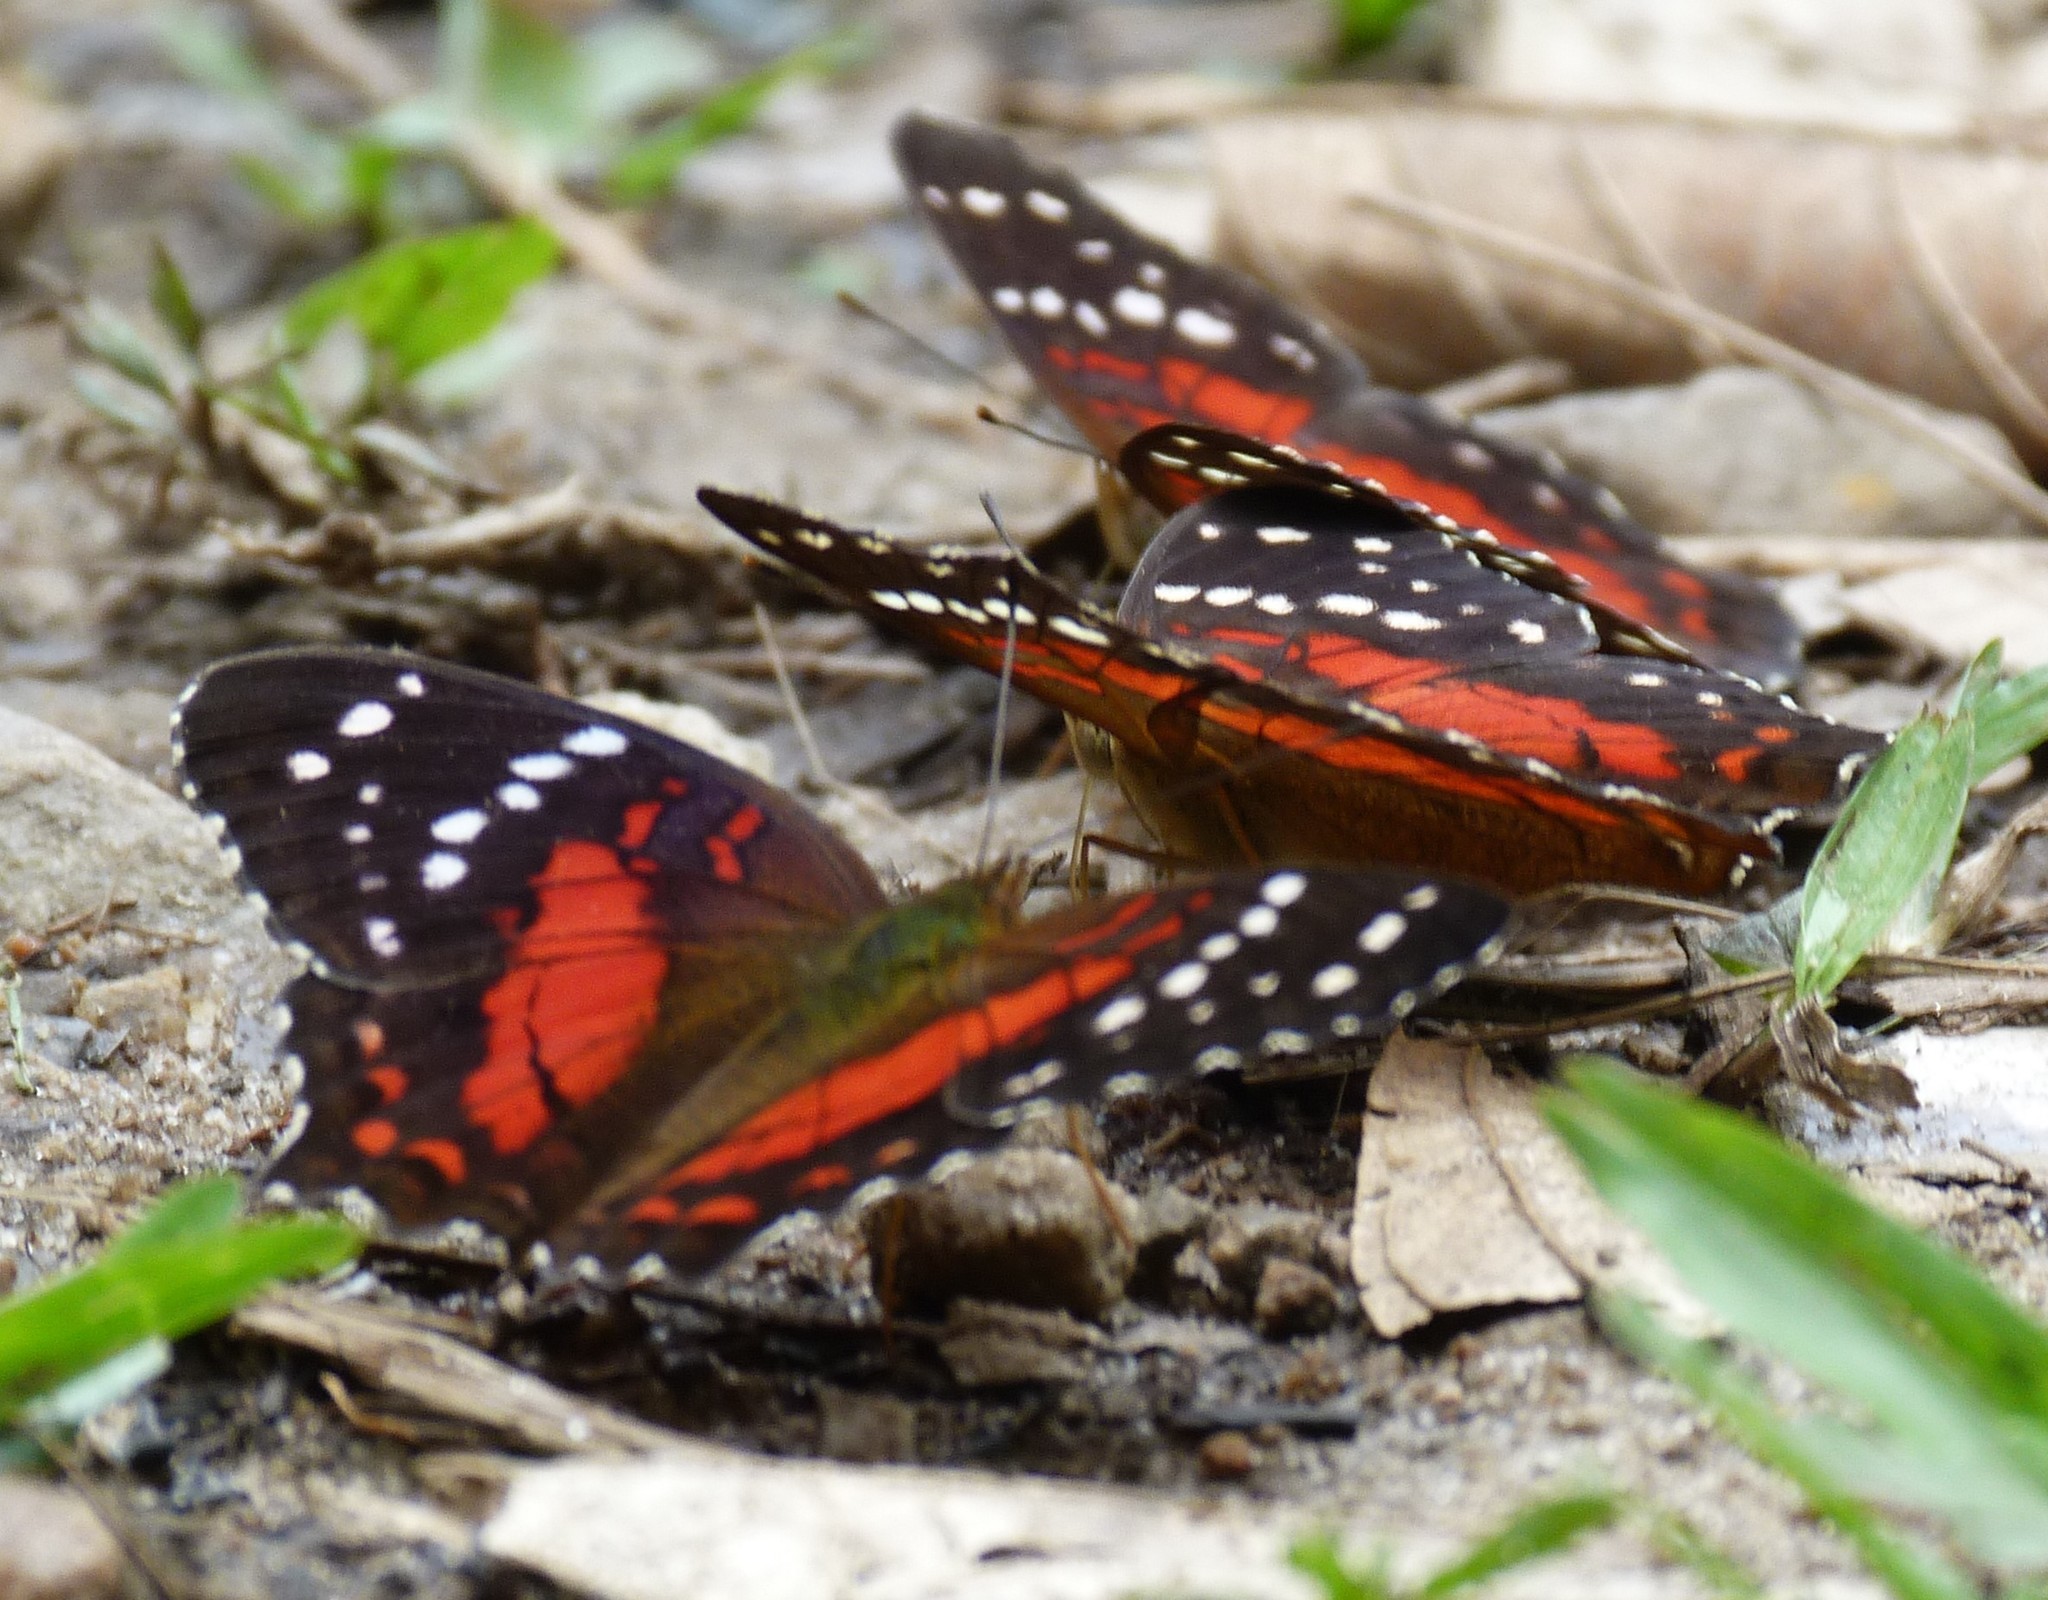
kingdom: Animalia
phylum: Arthropoda
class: Insecta
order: Lepidoptera
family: Nymphalidae
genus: Anartia
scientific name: Anartia amathea
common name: Red peacock
